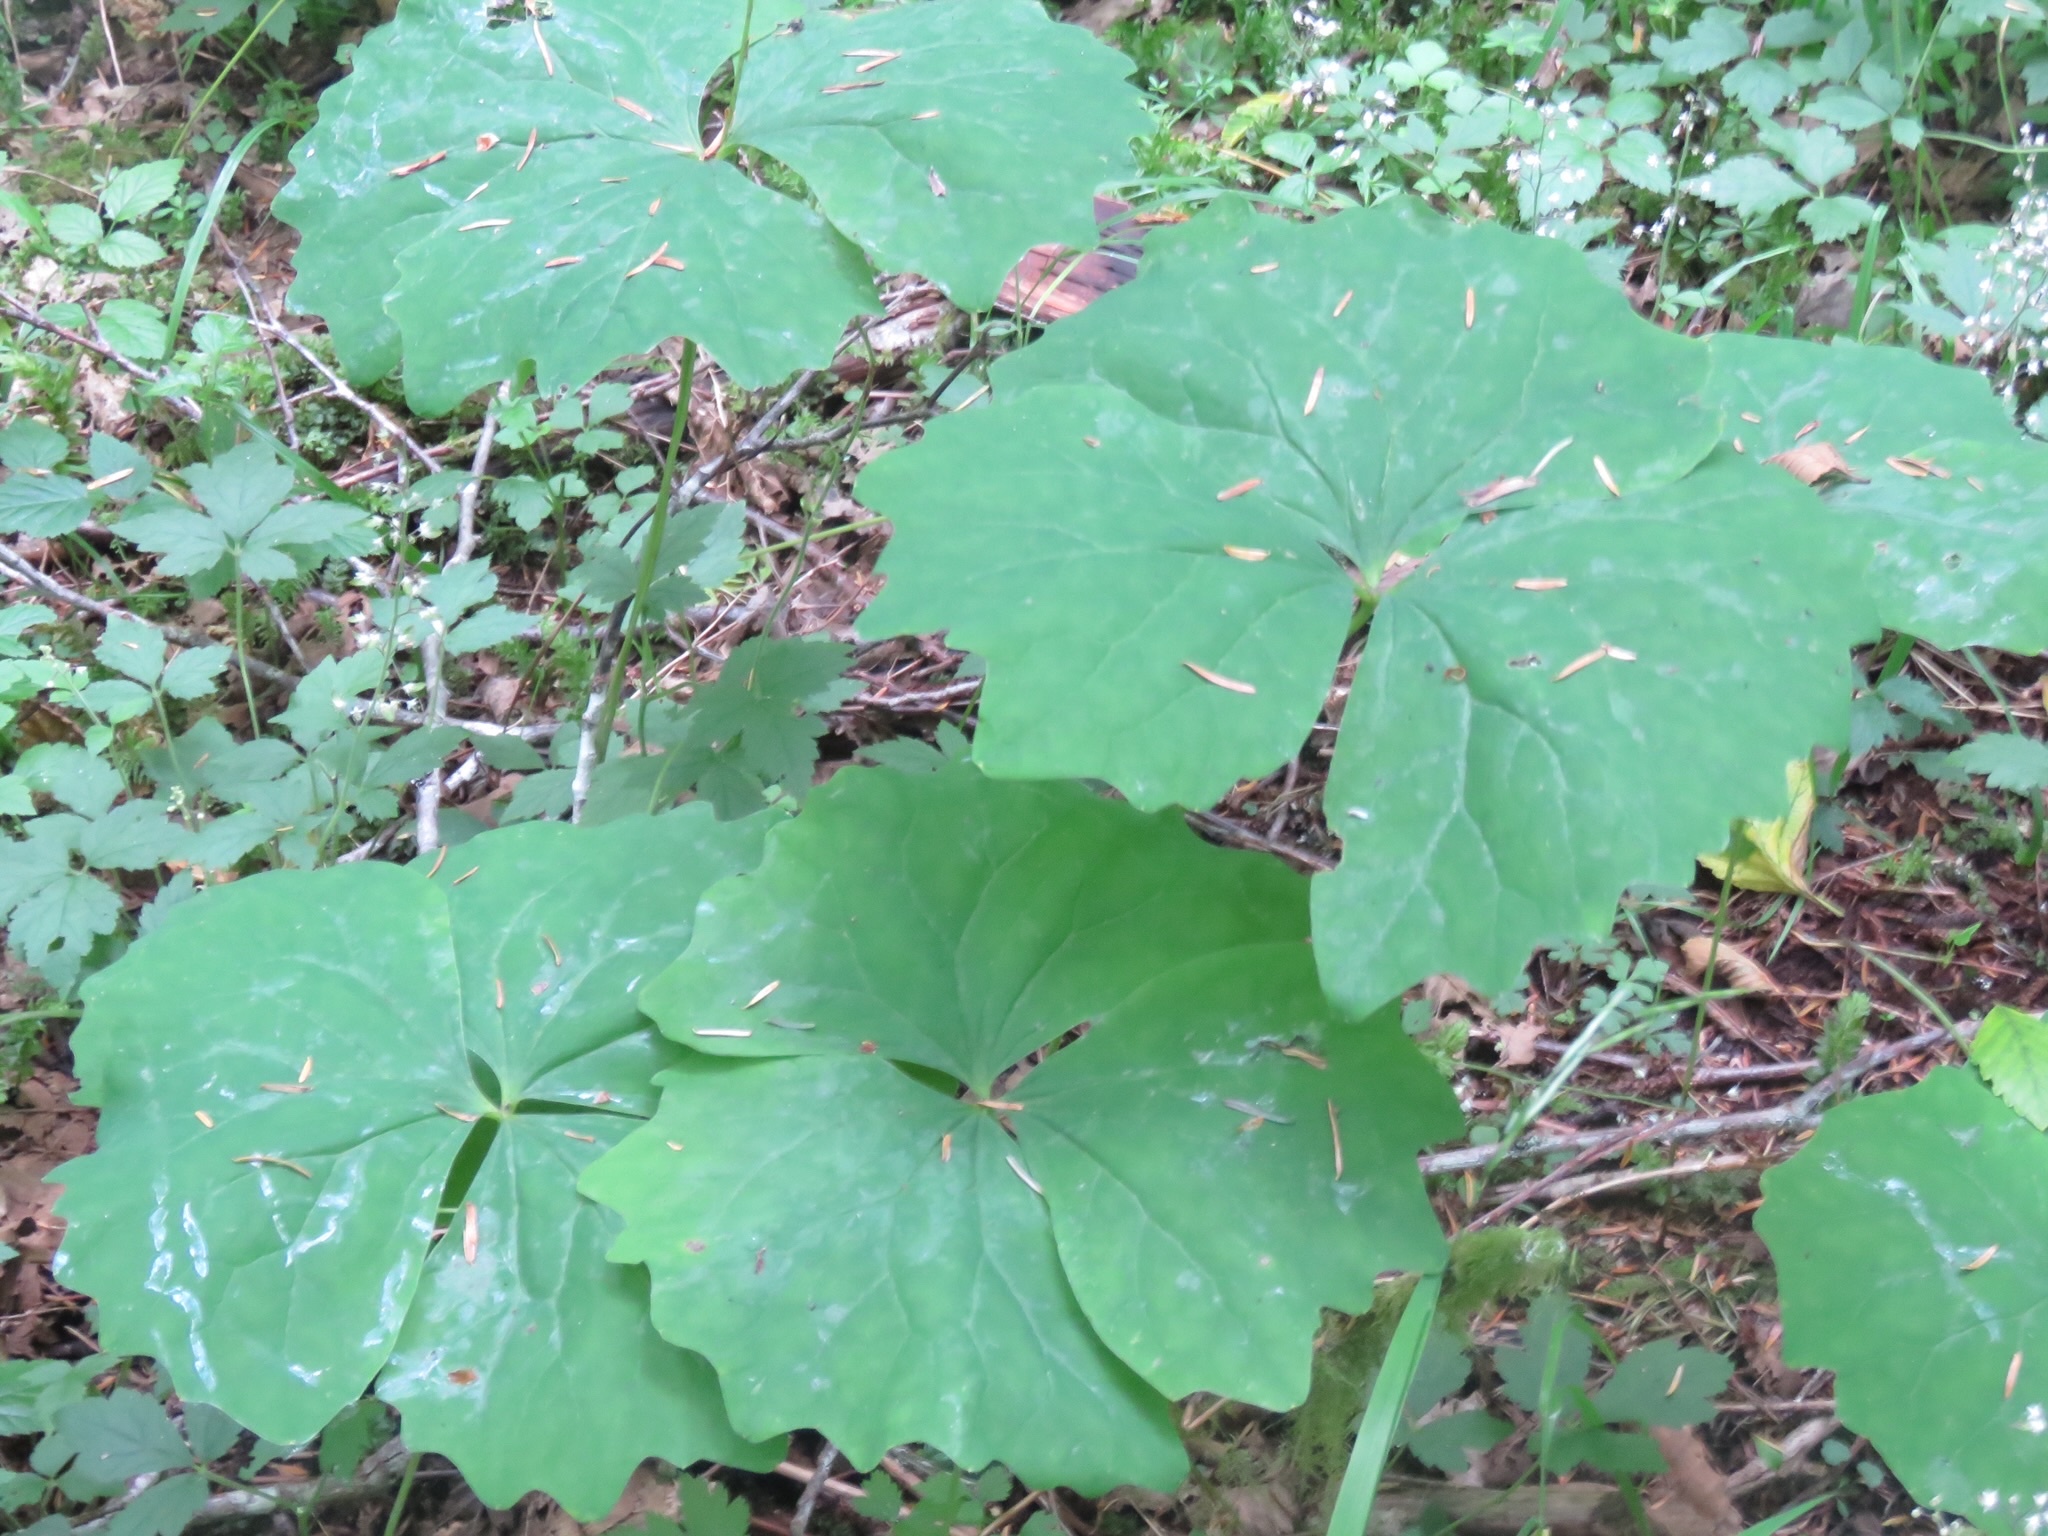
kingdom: Plantae
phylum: Tracheophyta
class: Magnoliopsida
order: Ranunculales
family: Berberidaceae
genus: Achlys
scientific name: Achlys triphylla
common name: Vanilla-leaf
